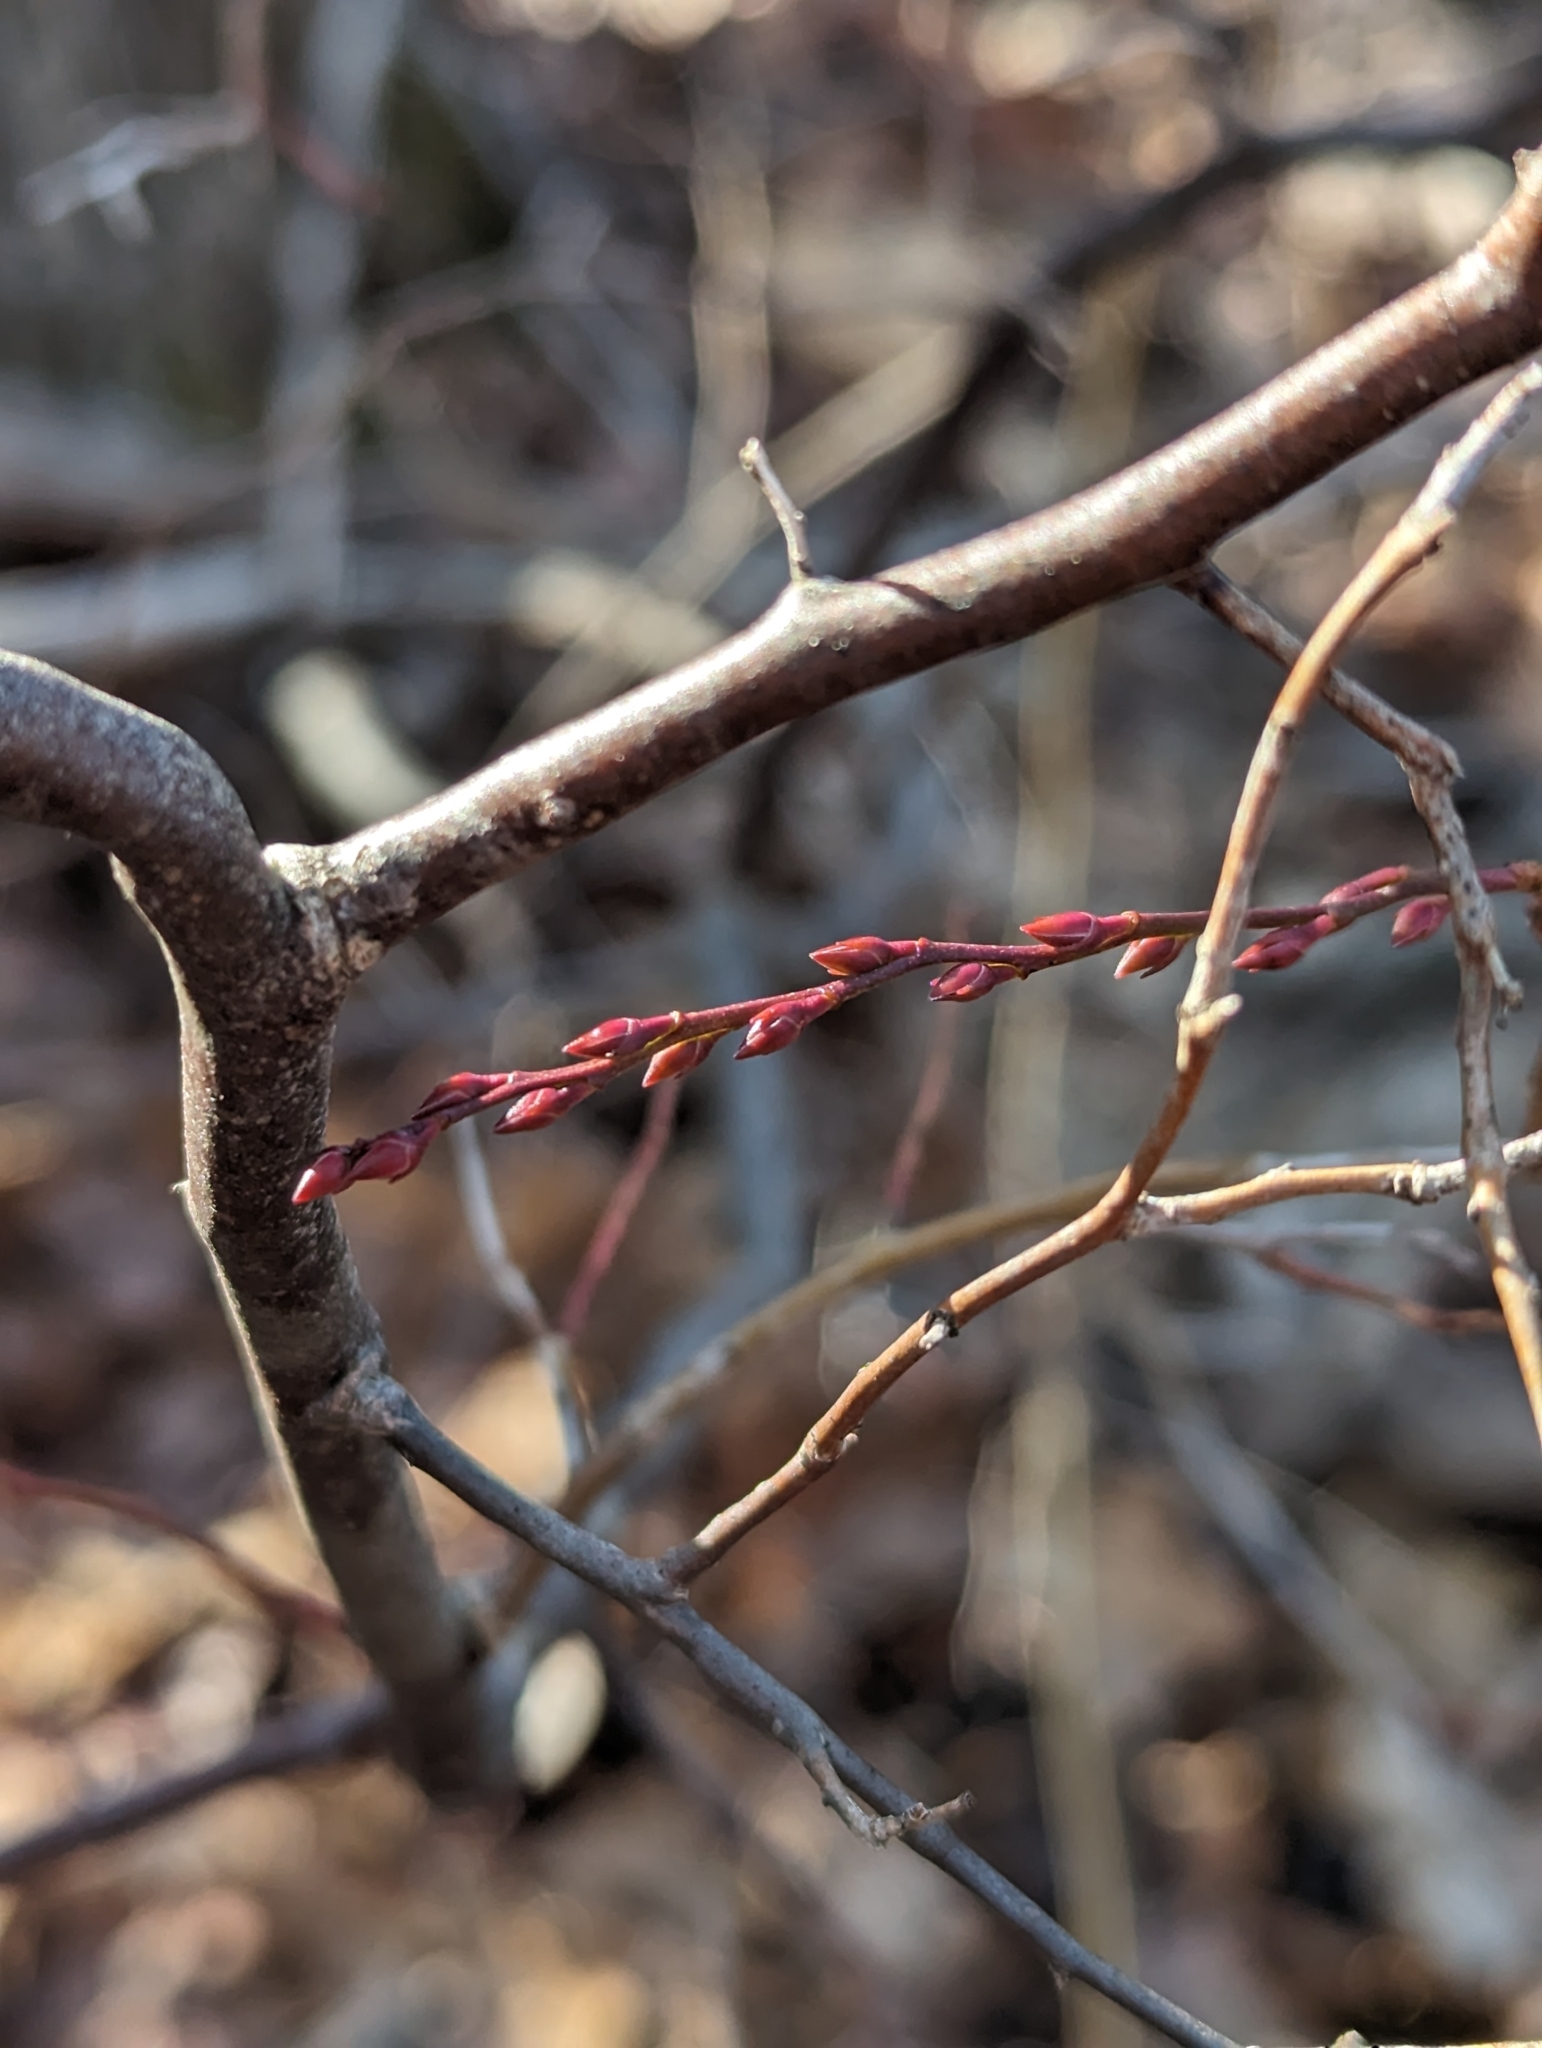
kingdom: Plantae
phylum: Tracheophyta
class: Magnoliopsida
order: Ericales
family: Ericaceae
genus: Eubotrys
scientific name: Eubotrys racemosa
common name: Fetterbush
